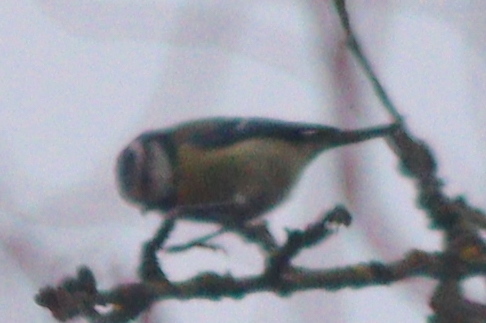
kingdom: Animalia
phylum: Chordata
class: Aves
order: Passeriformes
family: Paridae
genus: Cyanistes
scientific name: Cyanistes caeruleus
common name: Eurasian blue tit
